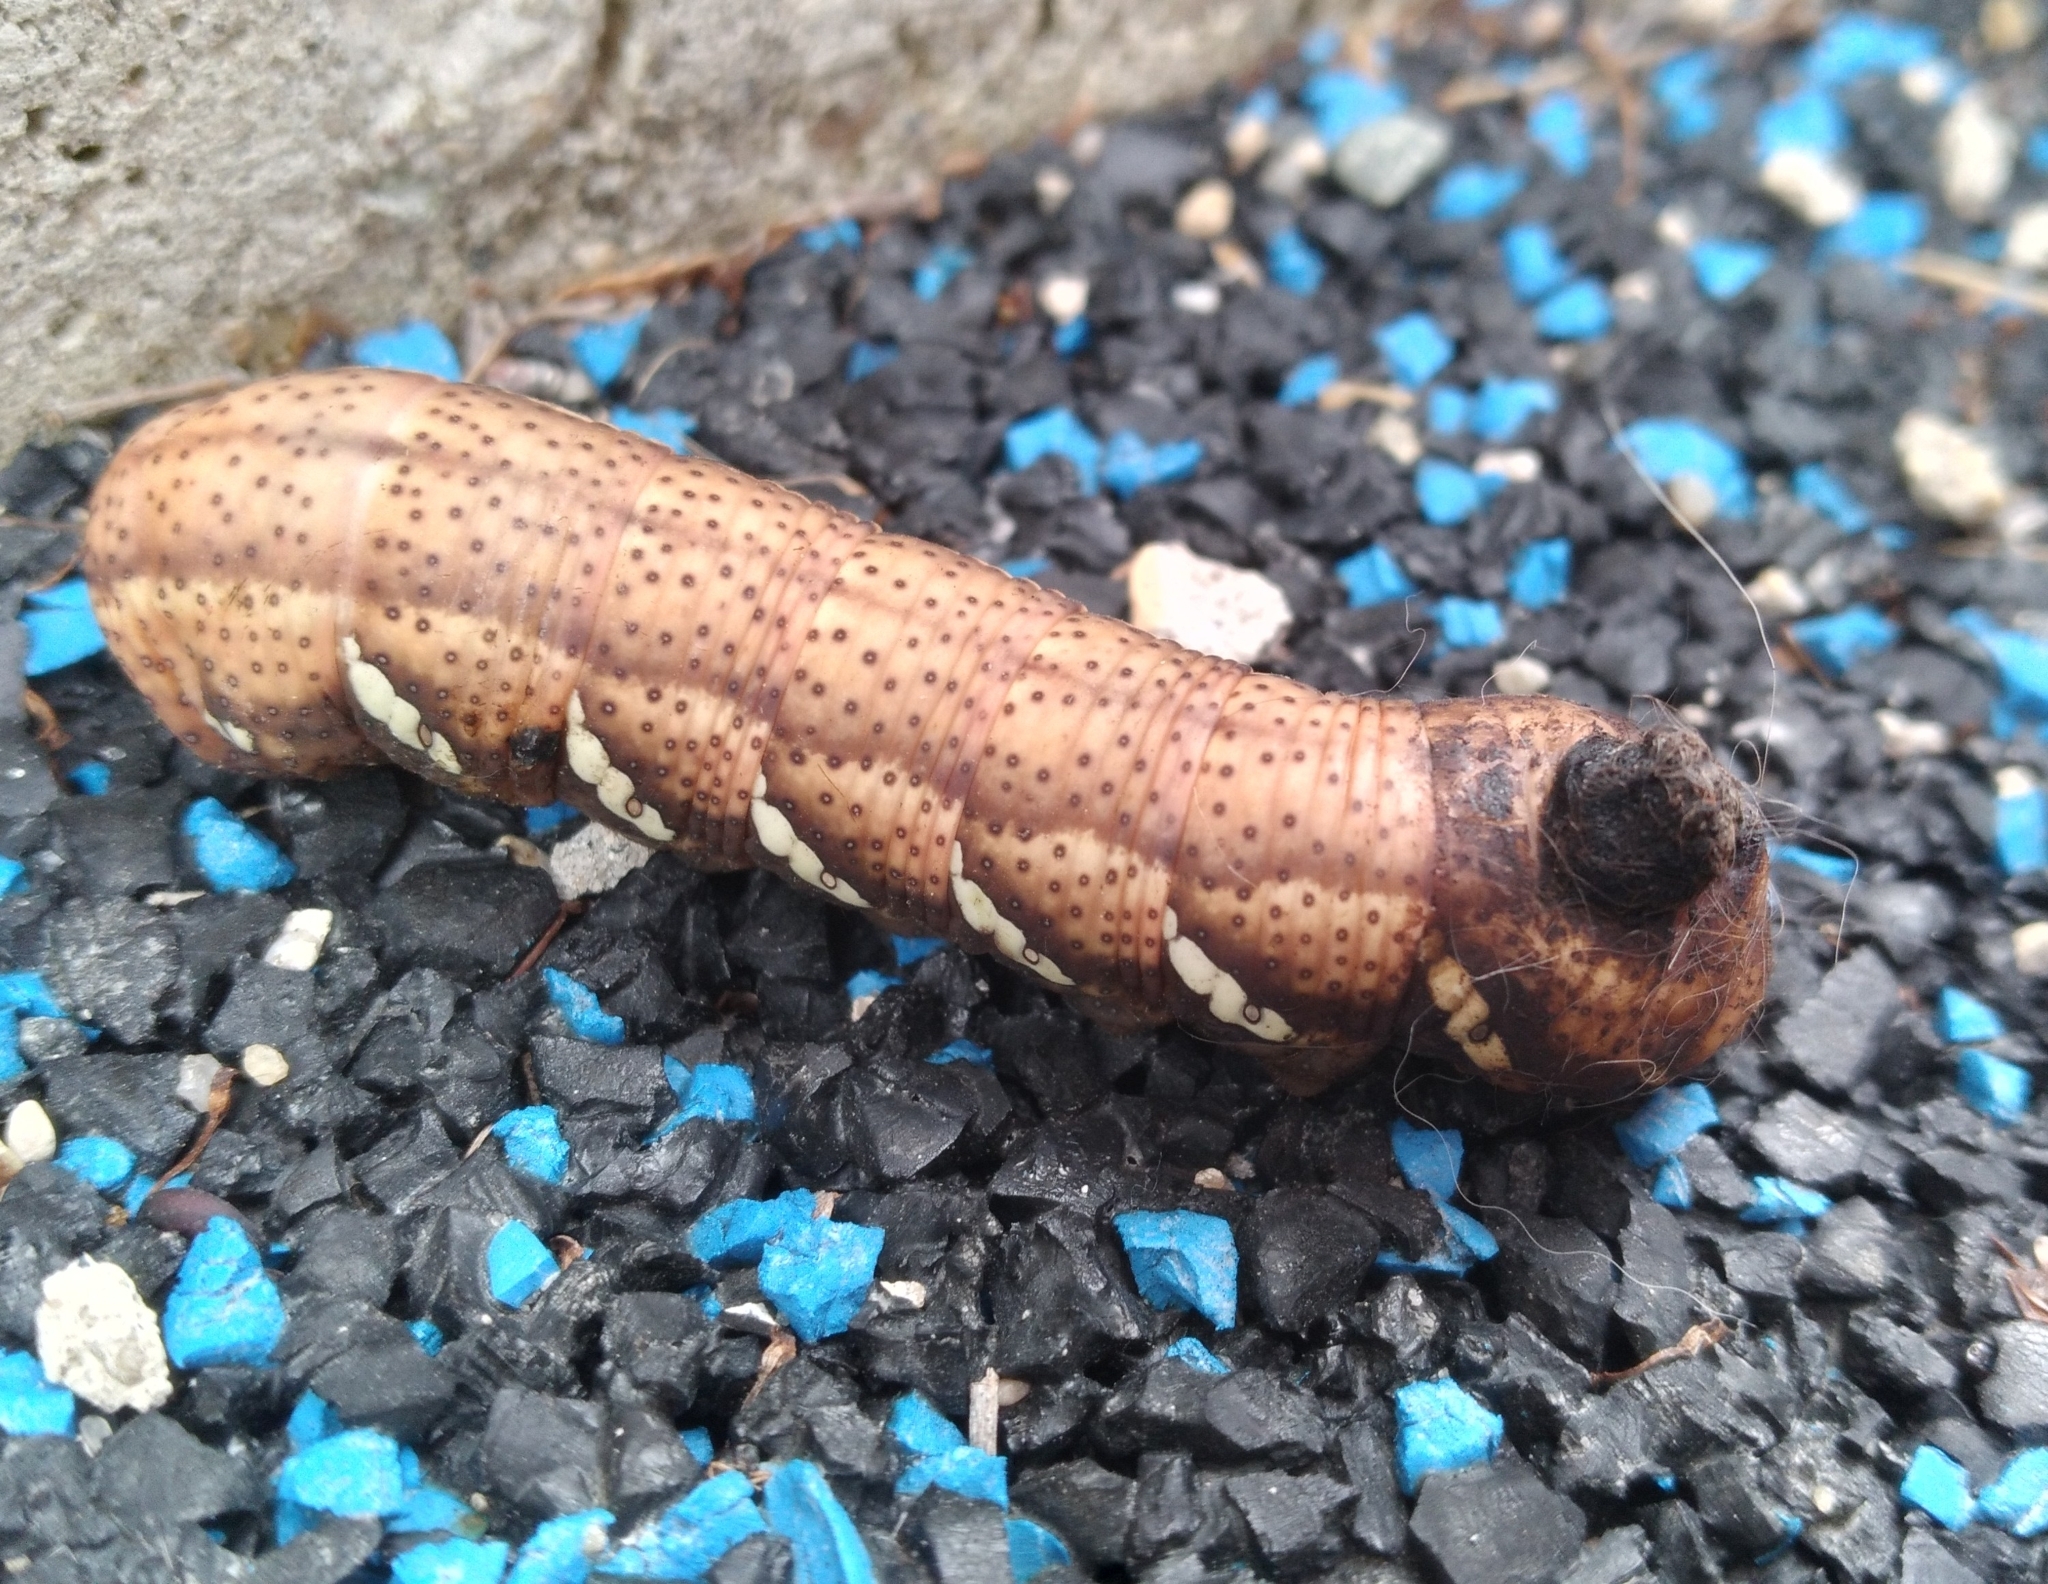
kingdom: Animalia
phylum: Arthropoda
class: Insecta
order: Lepidoptera
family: Sphingidae
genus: Eumorpha
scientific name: Eumorpha achemon
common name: Achemon sphinx
